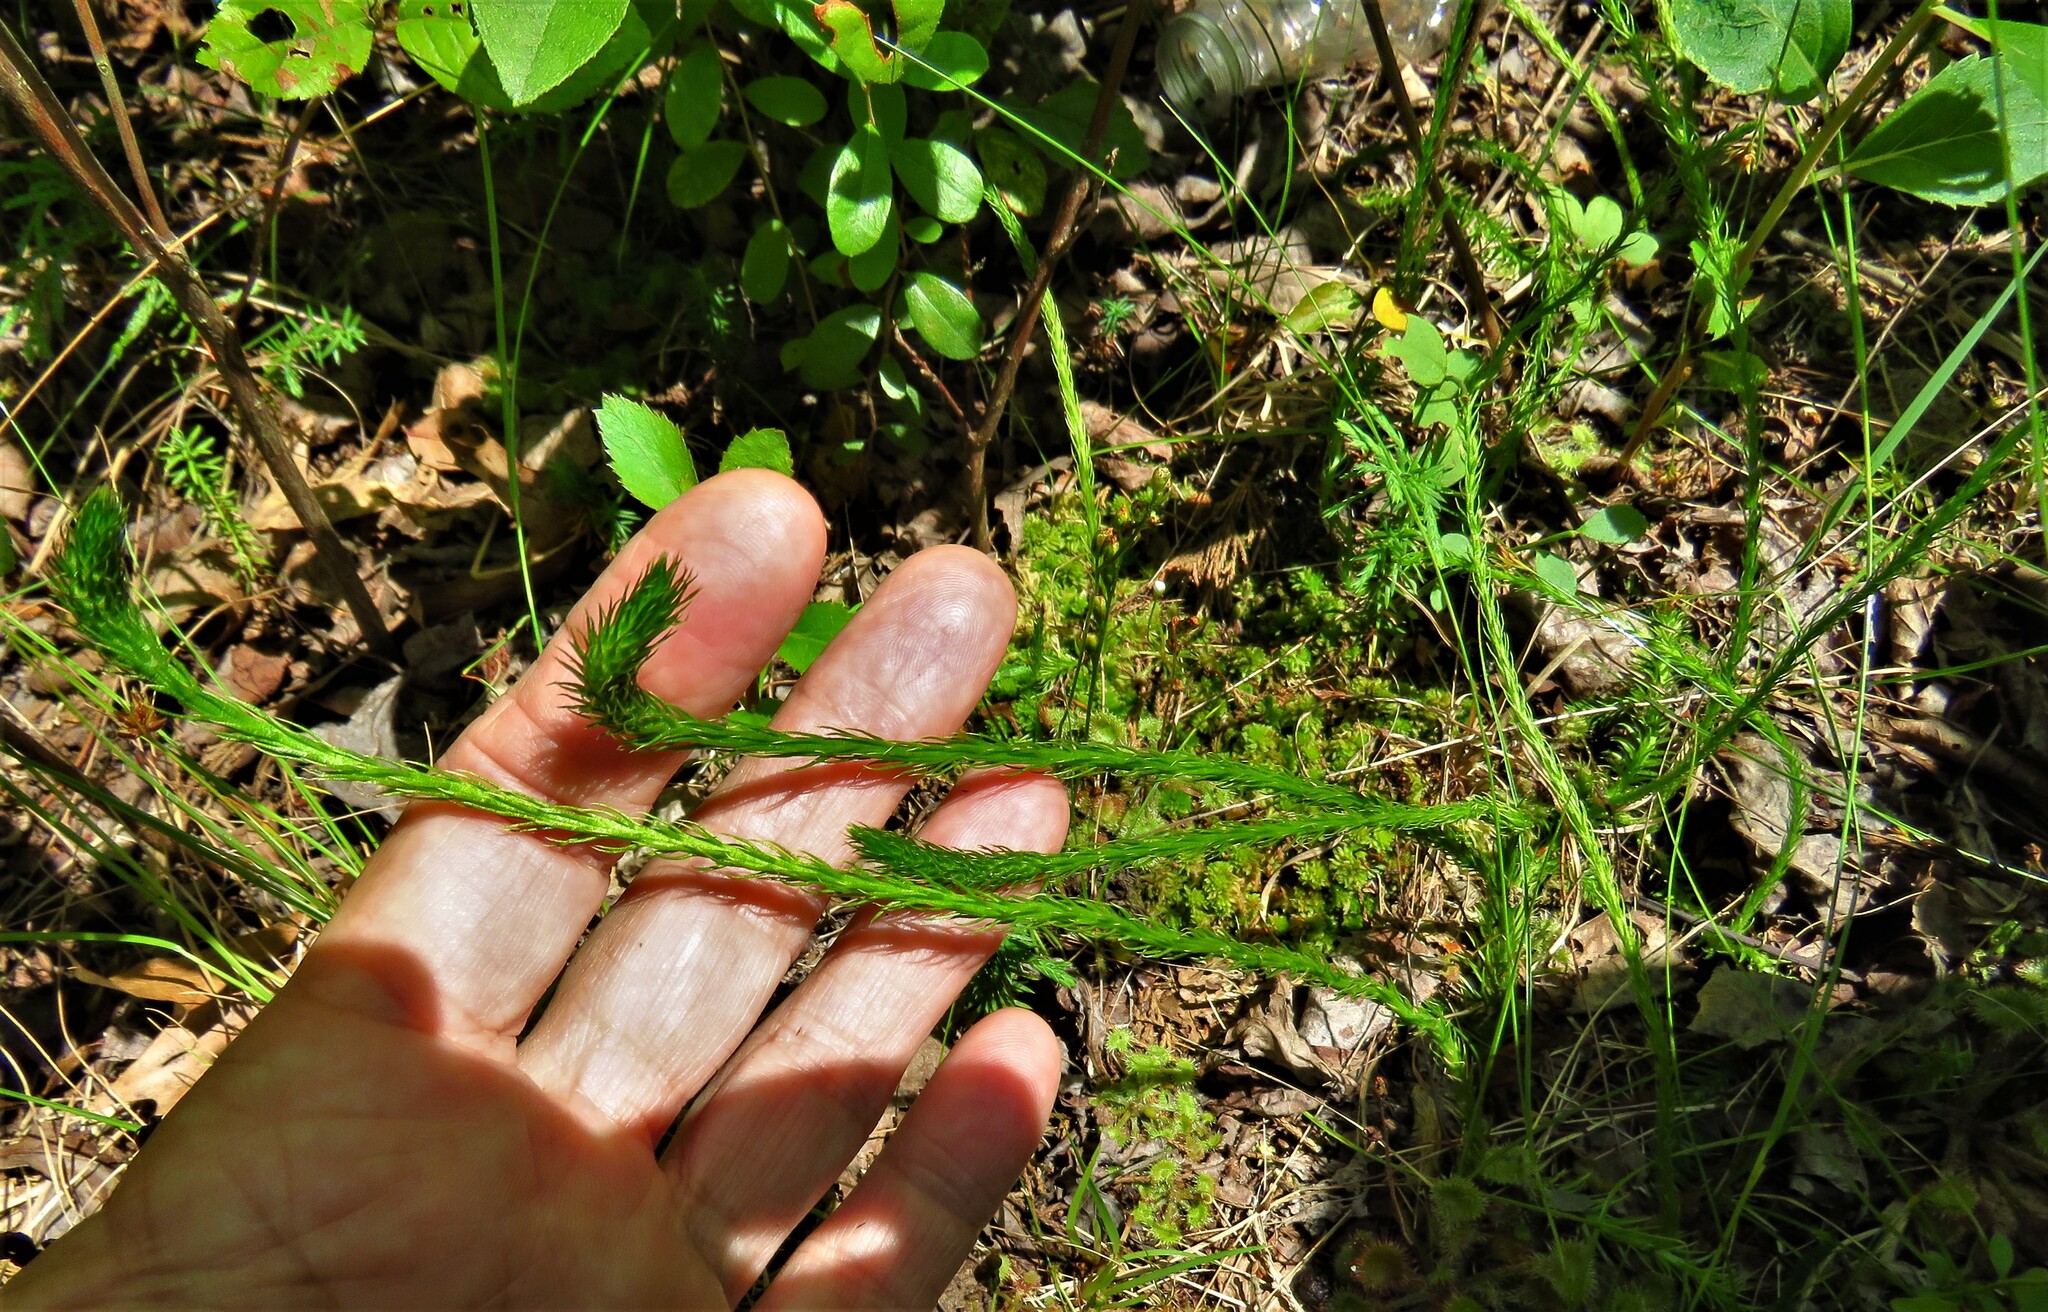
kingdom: Plantae
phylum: Tracheophyta
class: Lycopodiopsida
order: Lycopodiales
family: Lycopodiaceae
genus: Lycopodiella
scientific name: Lycopodiella appressa
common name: Appressed bog clubmoss
